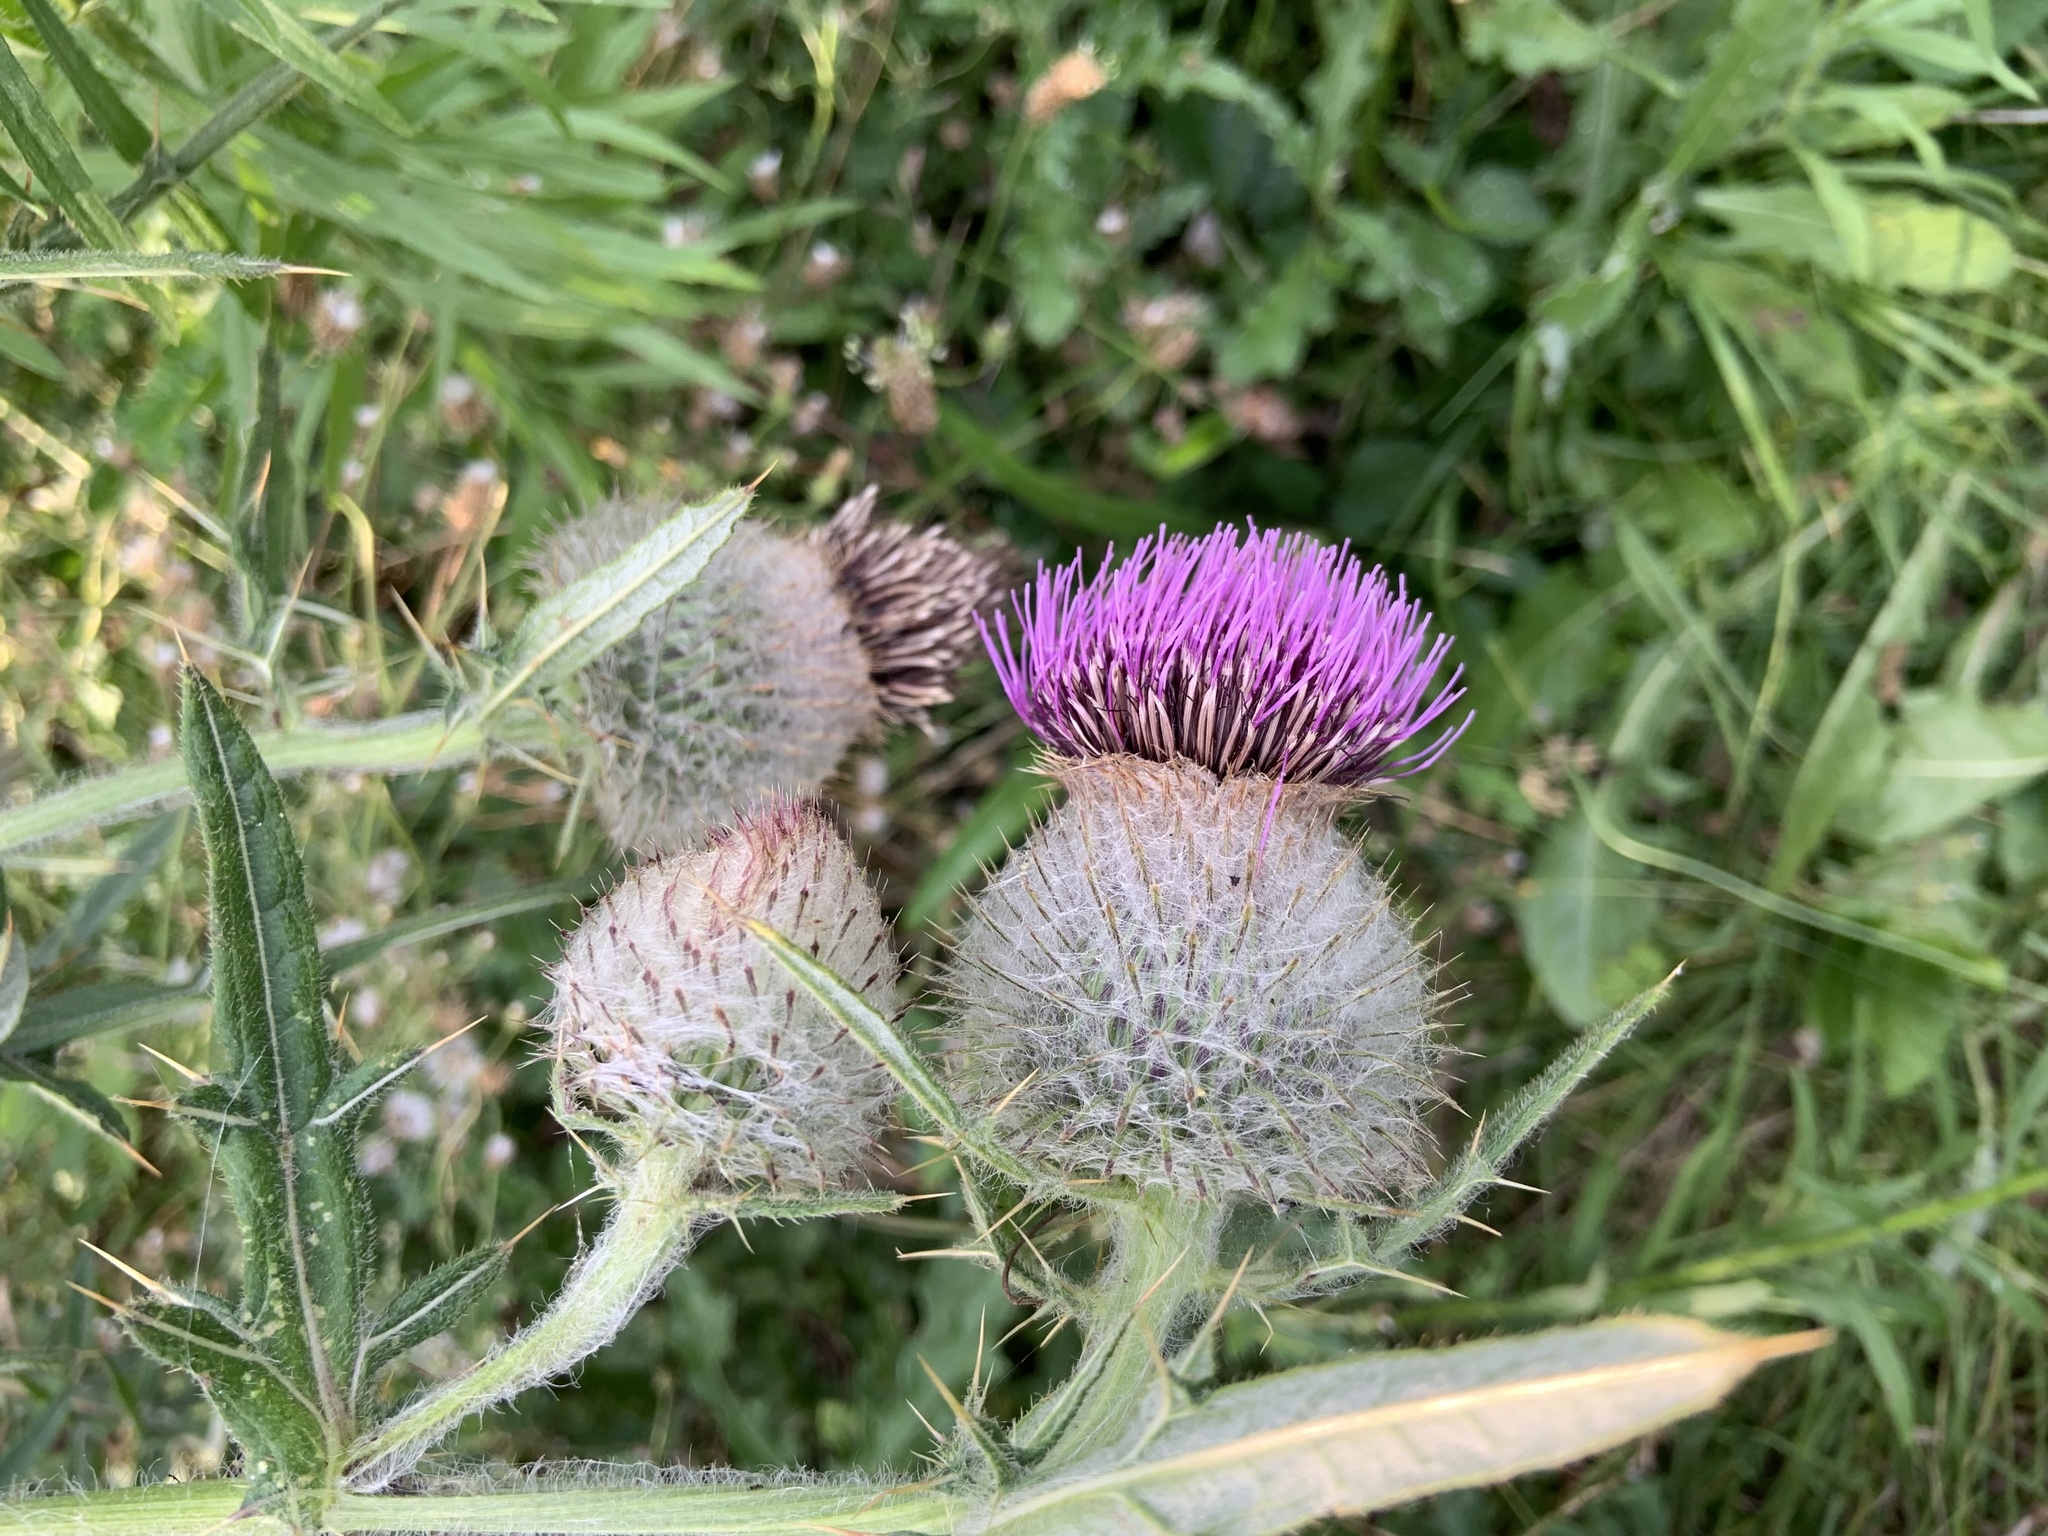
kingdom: Plantae
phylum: Tracheophyta
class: Magnoliopsida
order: Asterales
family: Asteraceae
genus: Lophiolepis
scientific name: Lophiolepis eriophora
